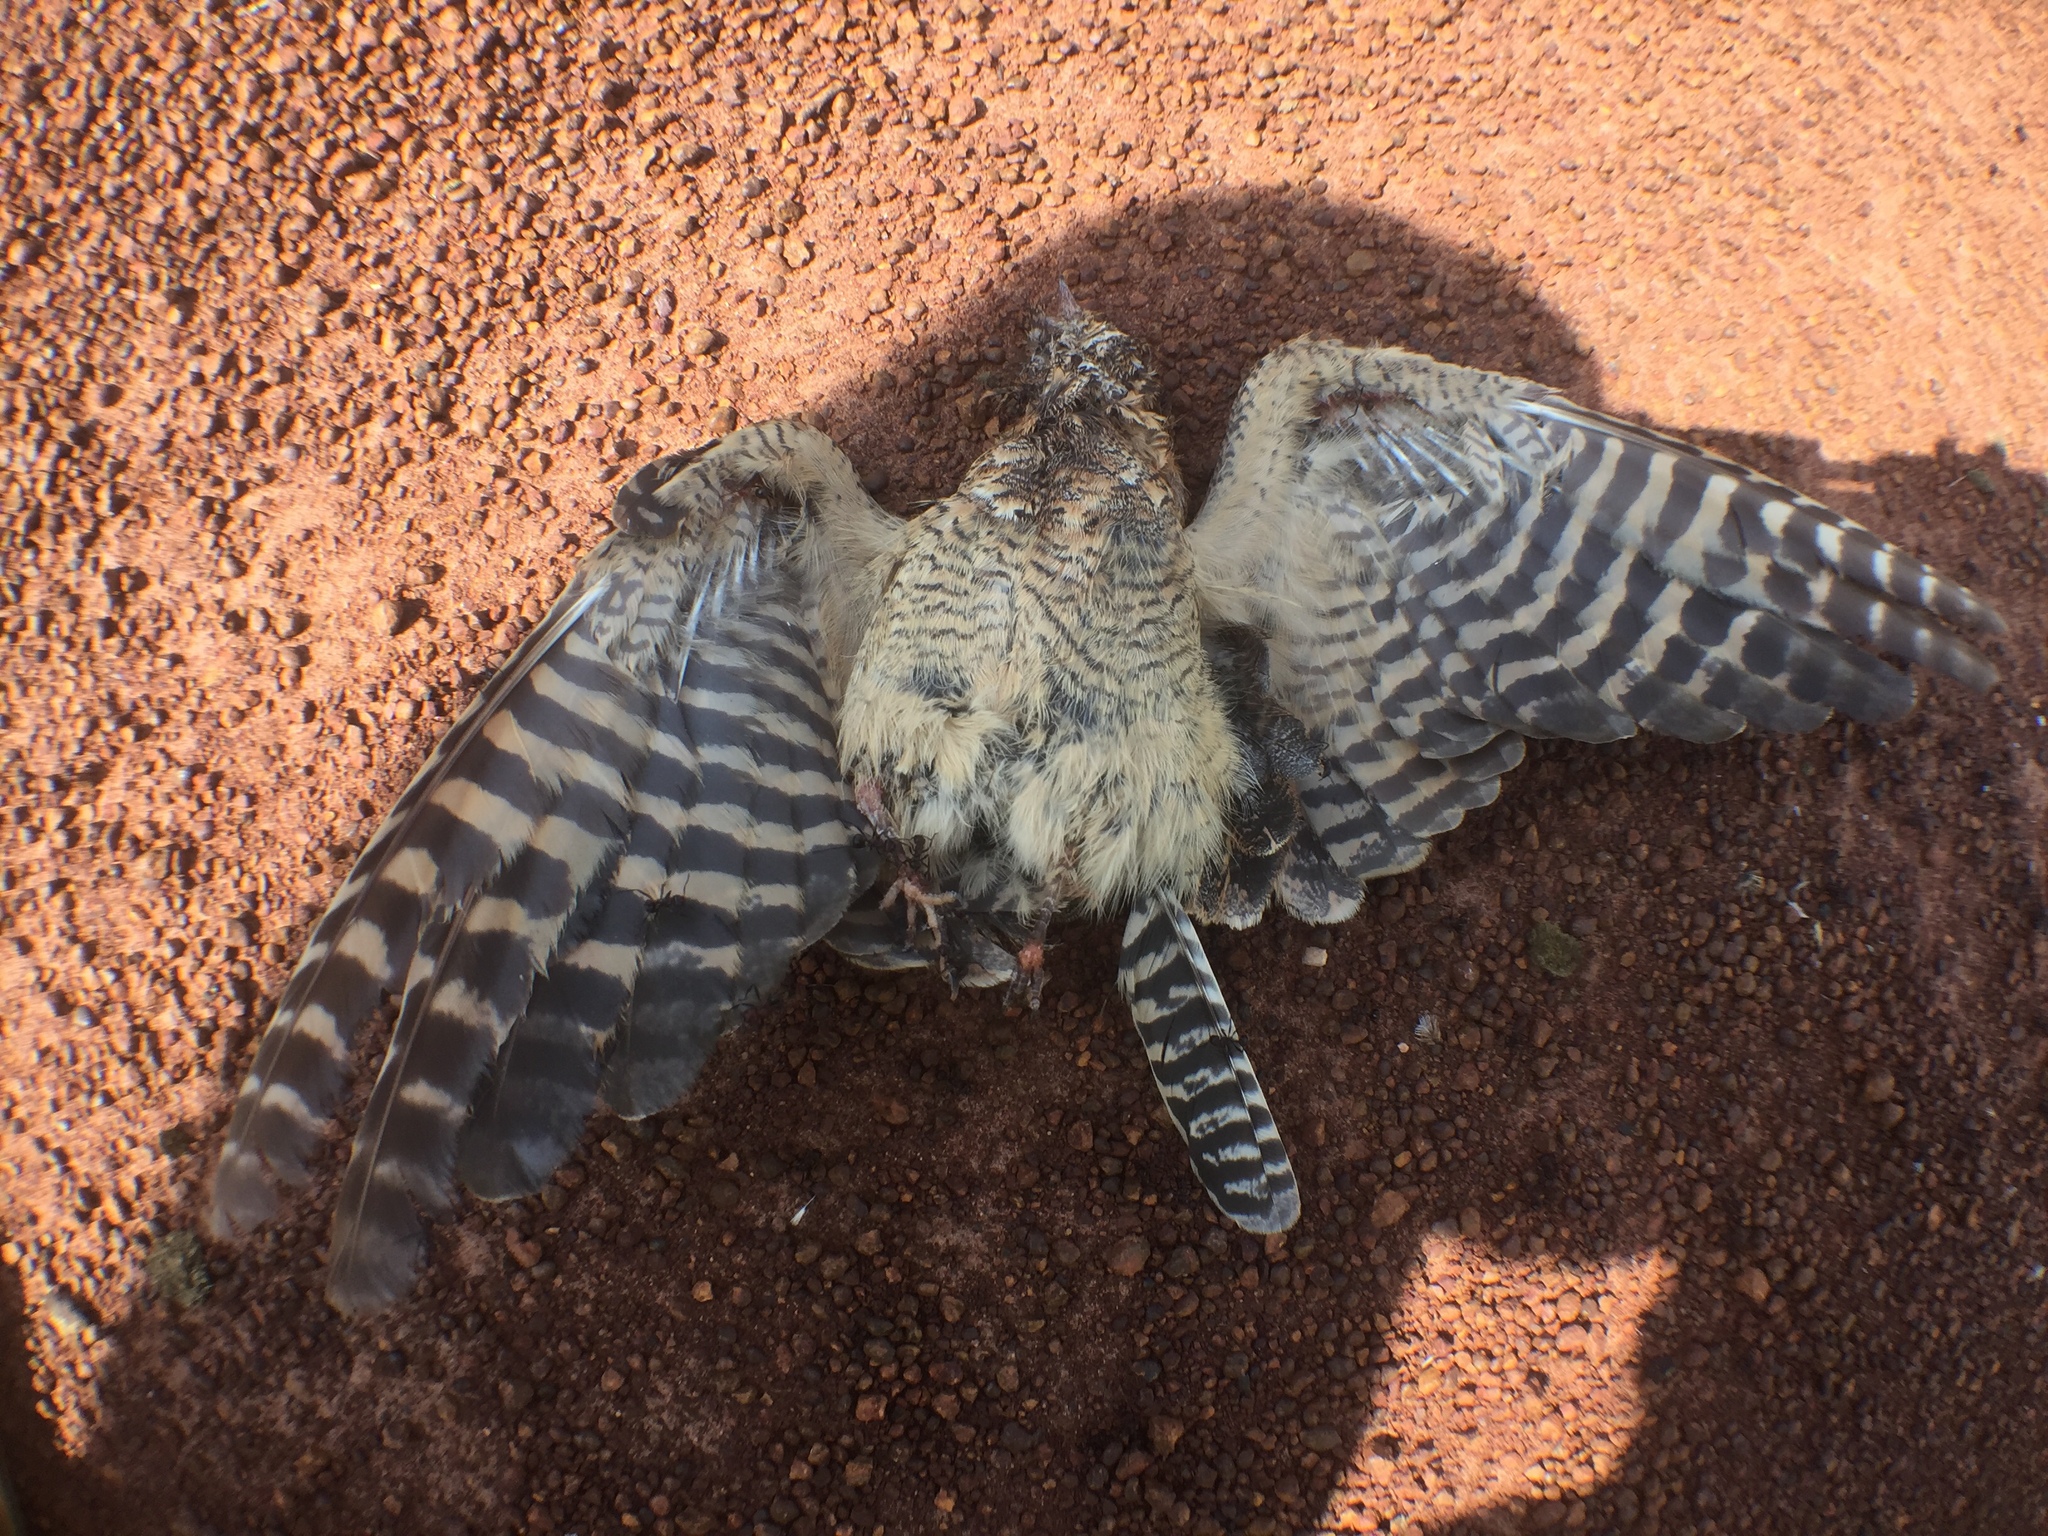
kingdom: Animalia
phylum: Chordata
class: Aves
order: Caprimulgiformes
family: Caprimulgidae
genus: Caprimulgus
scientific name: Caprimulgus longipennis
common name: Standard-winged nightjar
